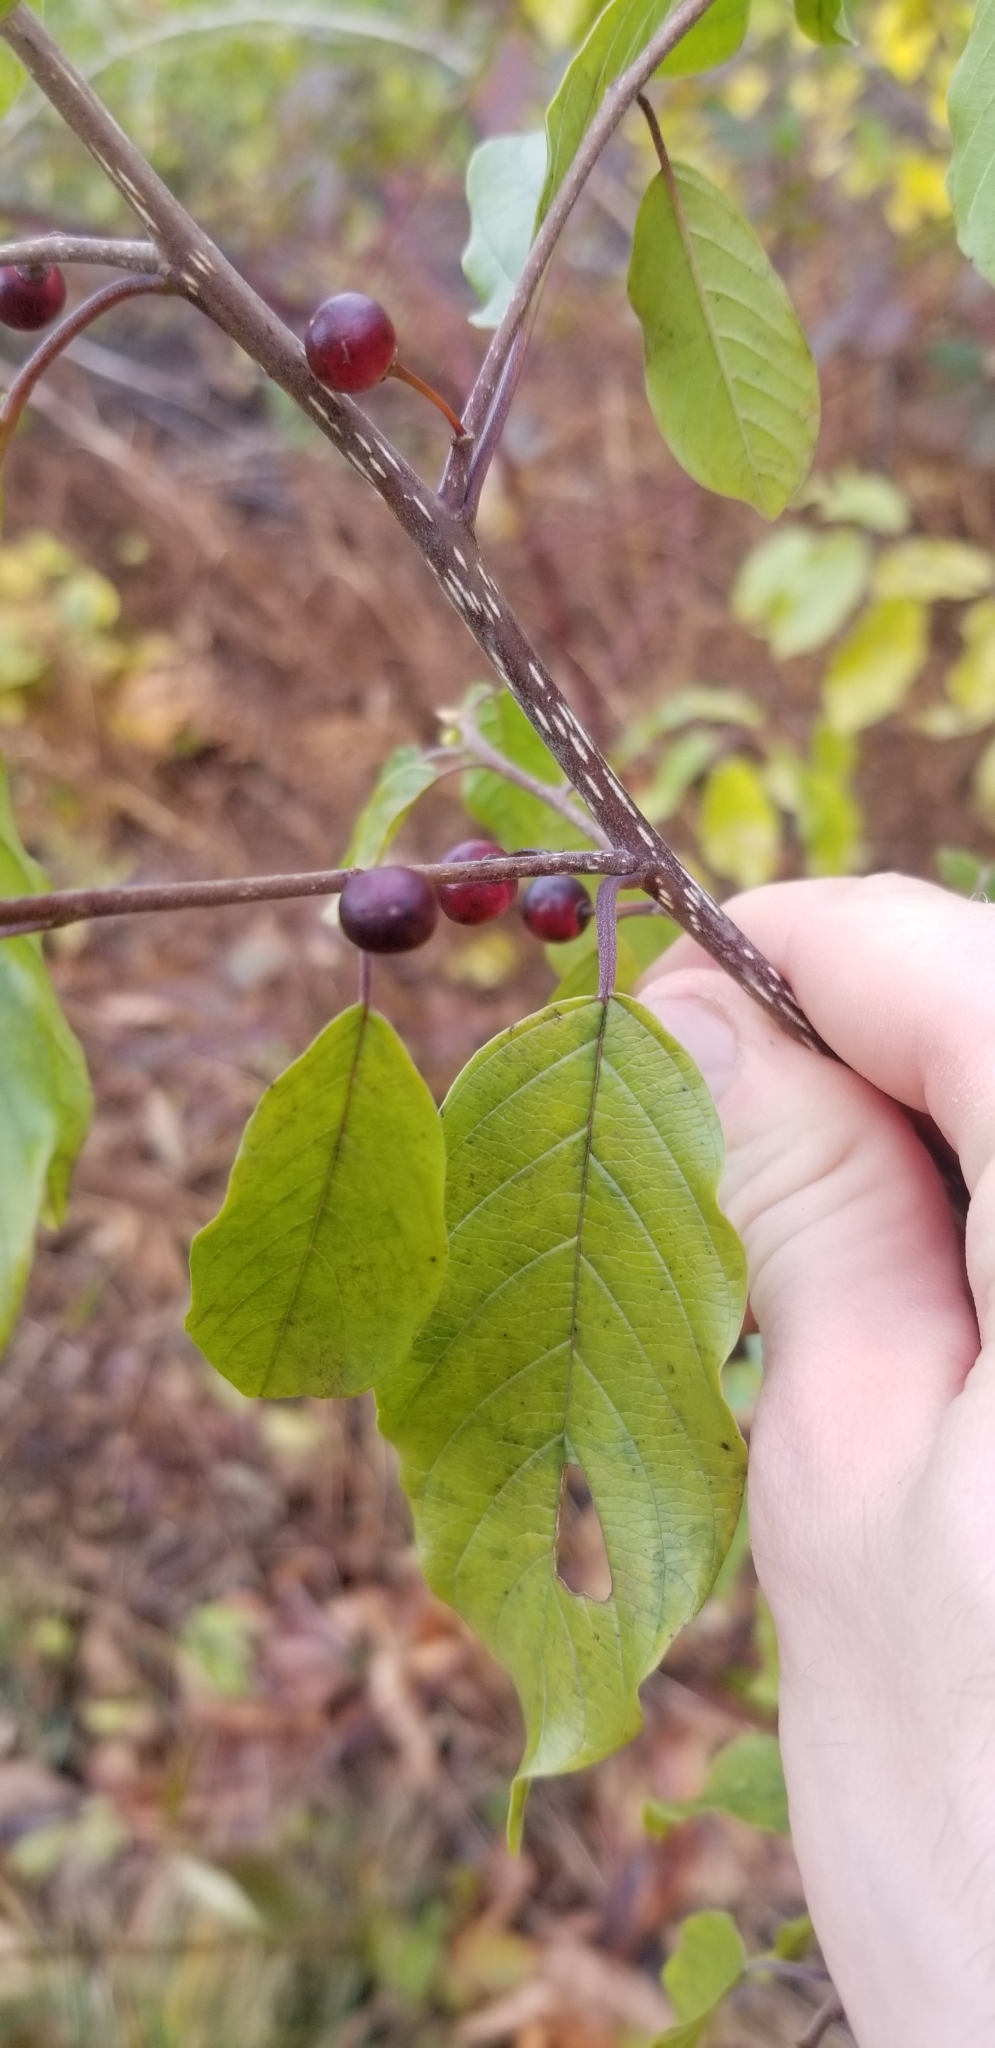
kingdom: Plantae
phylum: Tracheophyta
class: Magnoliopsida
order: Rosales
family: Rhamnaceae
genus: Frangula
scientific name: Frangula alnus
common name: Alder buckthorn
